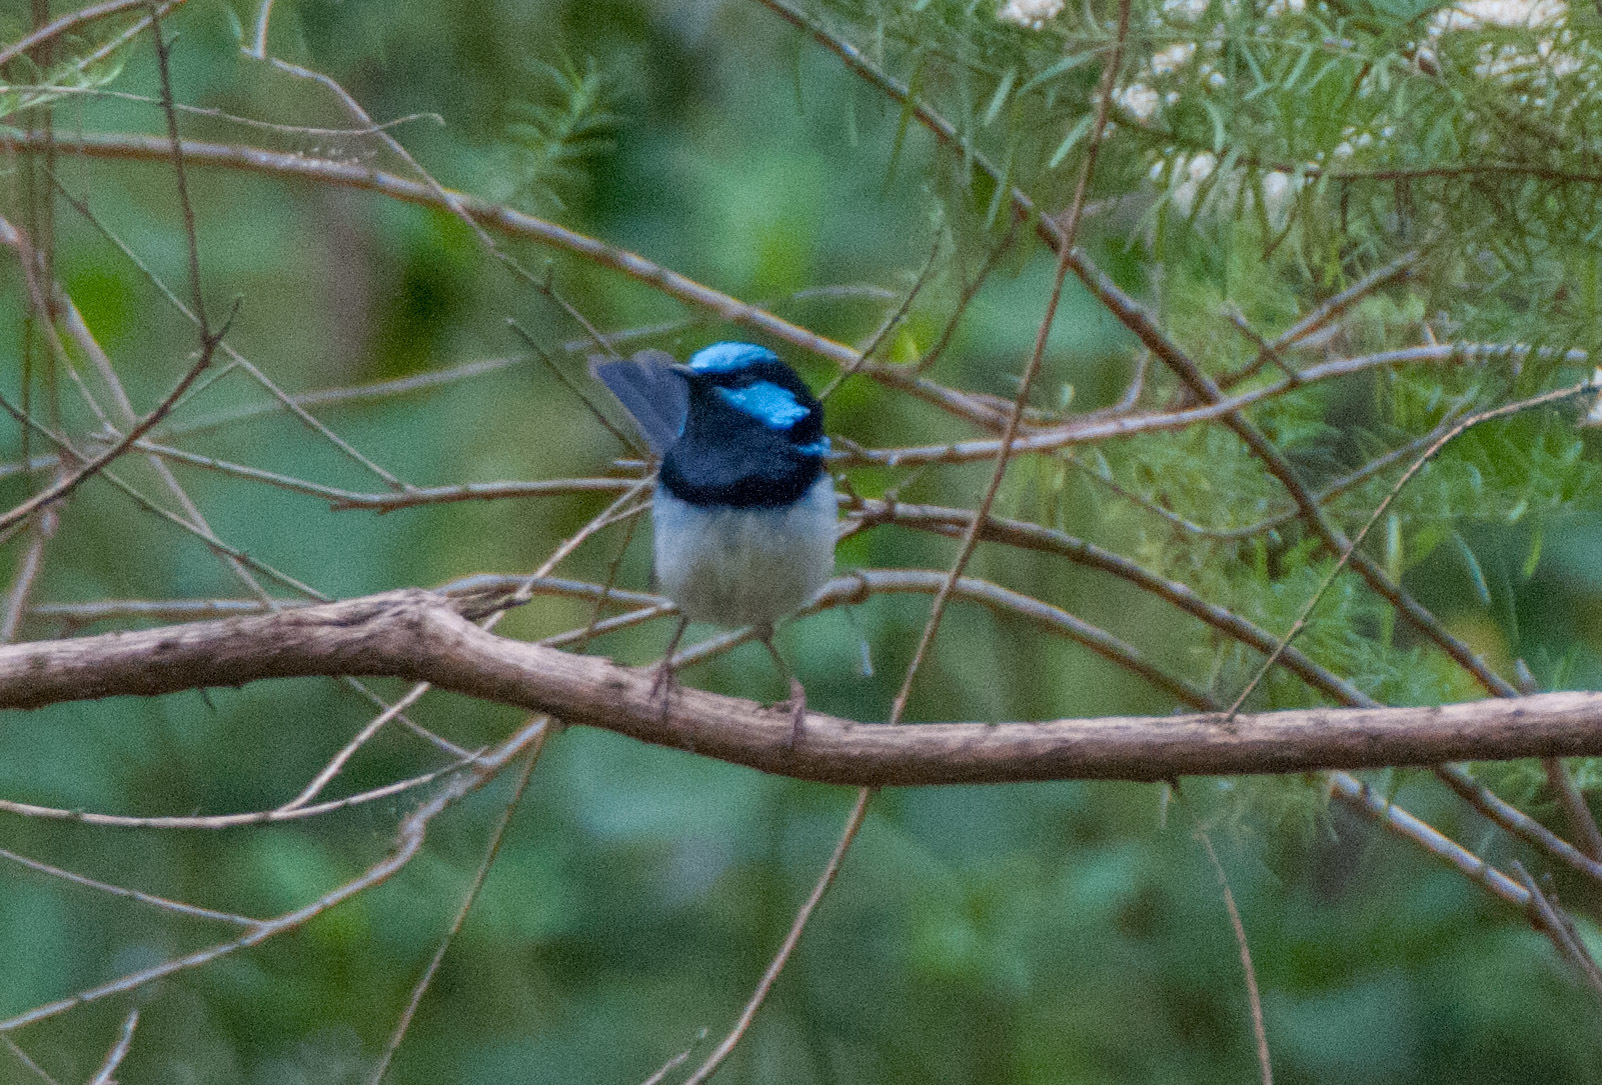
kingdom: Animalia
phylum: Chordata
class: Aves
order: Passeriformes
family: Maluridae
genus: Malurus
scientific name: Malurus cyaneus
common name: Superb fairywren
